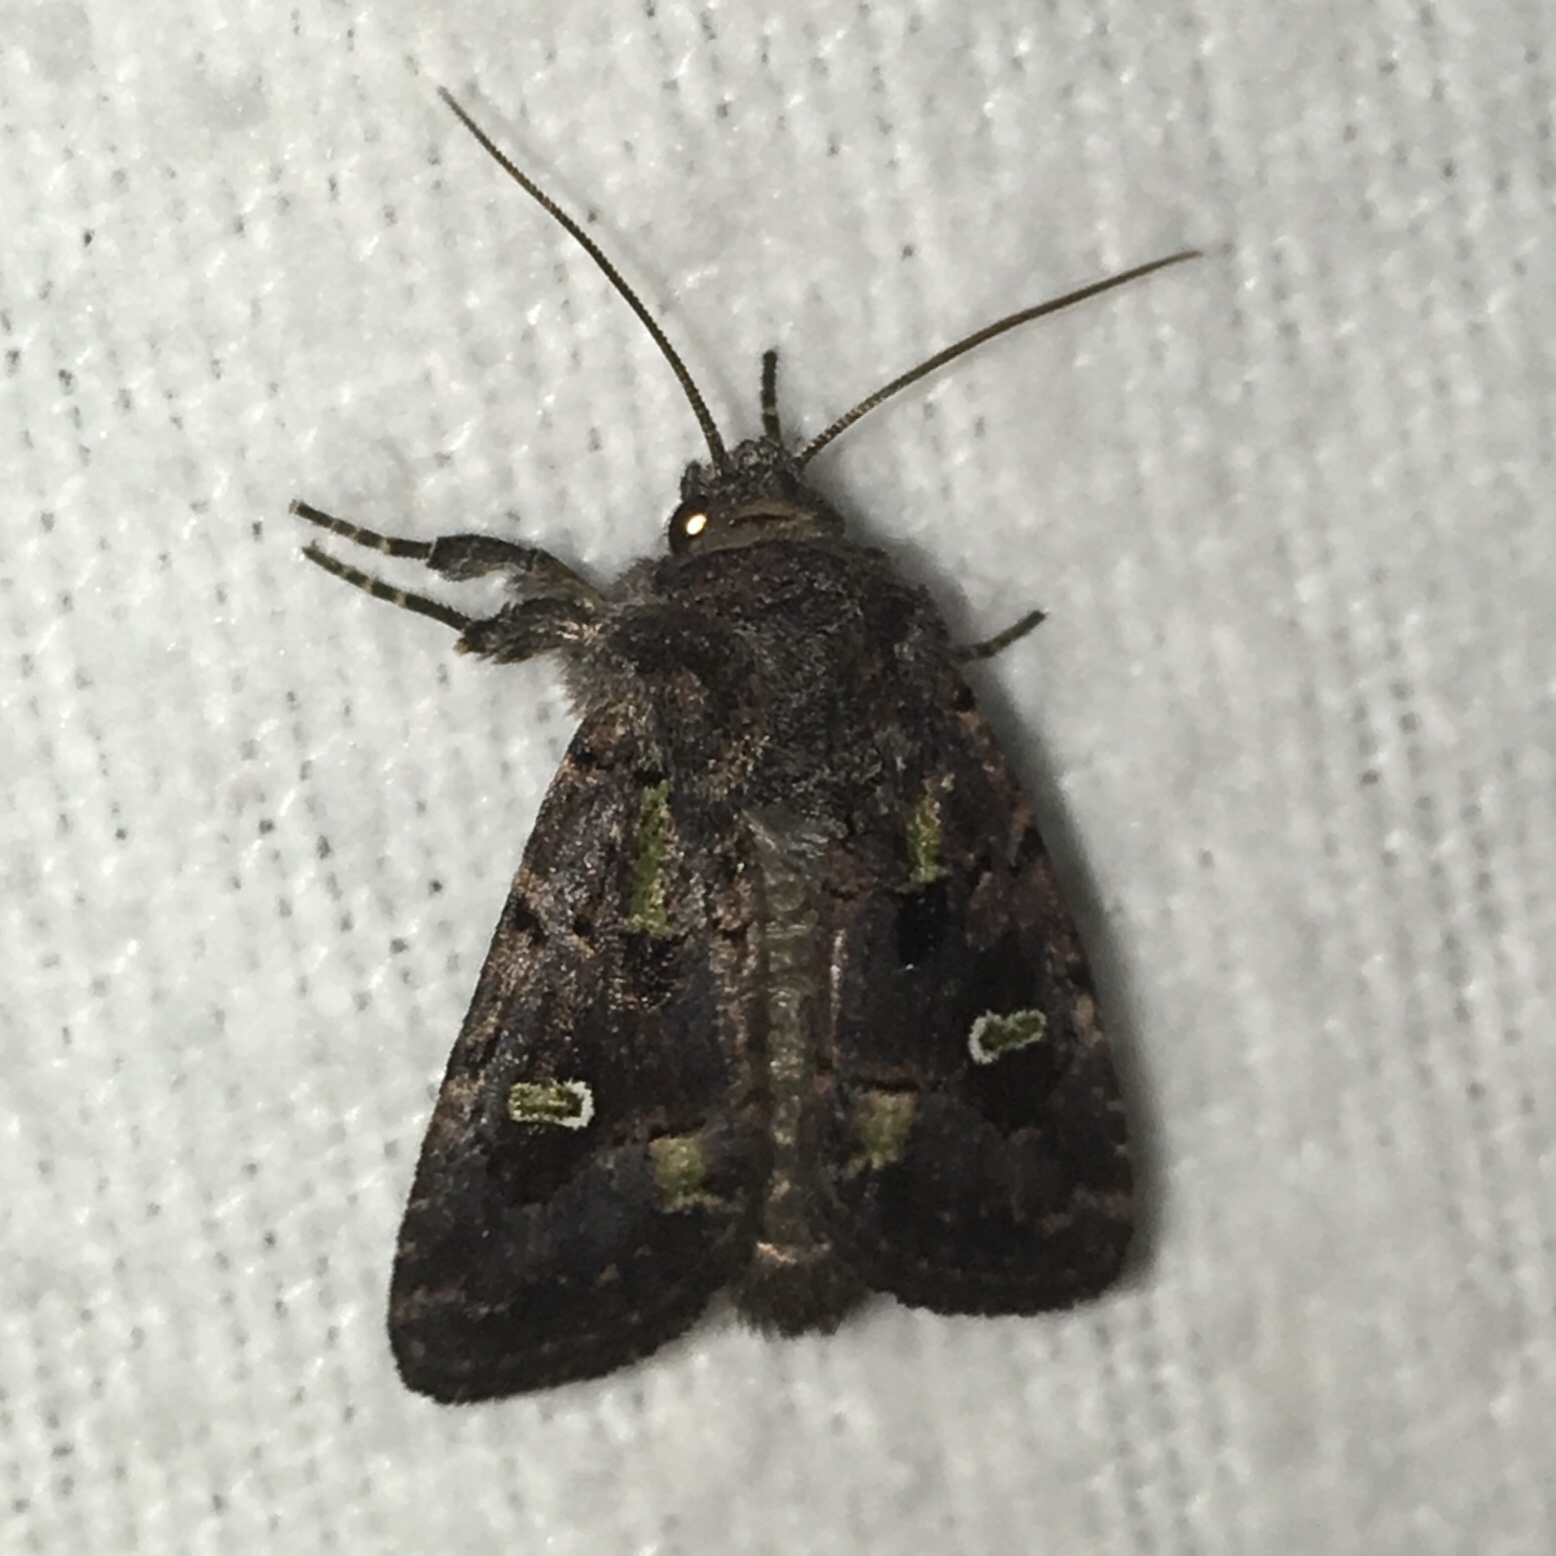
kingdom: Animalia
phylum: Arthropoda
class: Insecta
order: Lepidoptera
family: Noctuidae
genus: Lacinipolia
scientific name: Lacinipolia renigera
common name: Kidney-spotted minor
